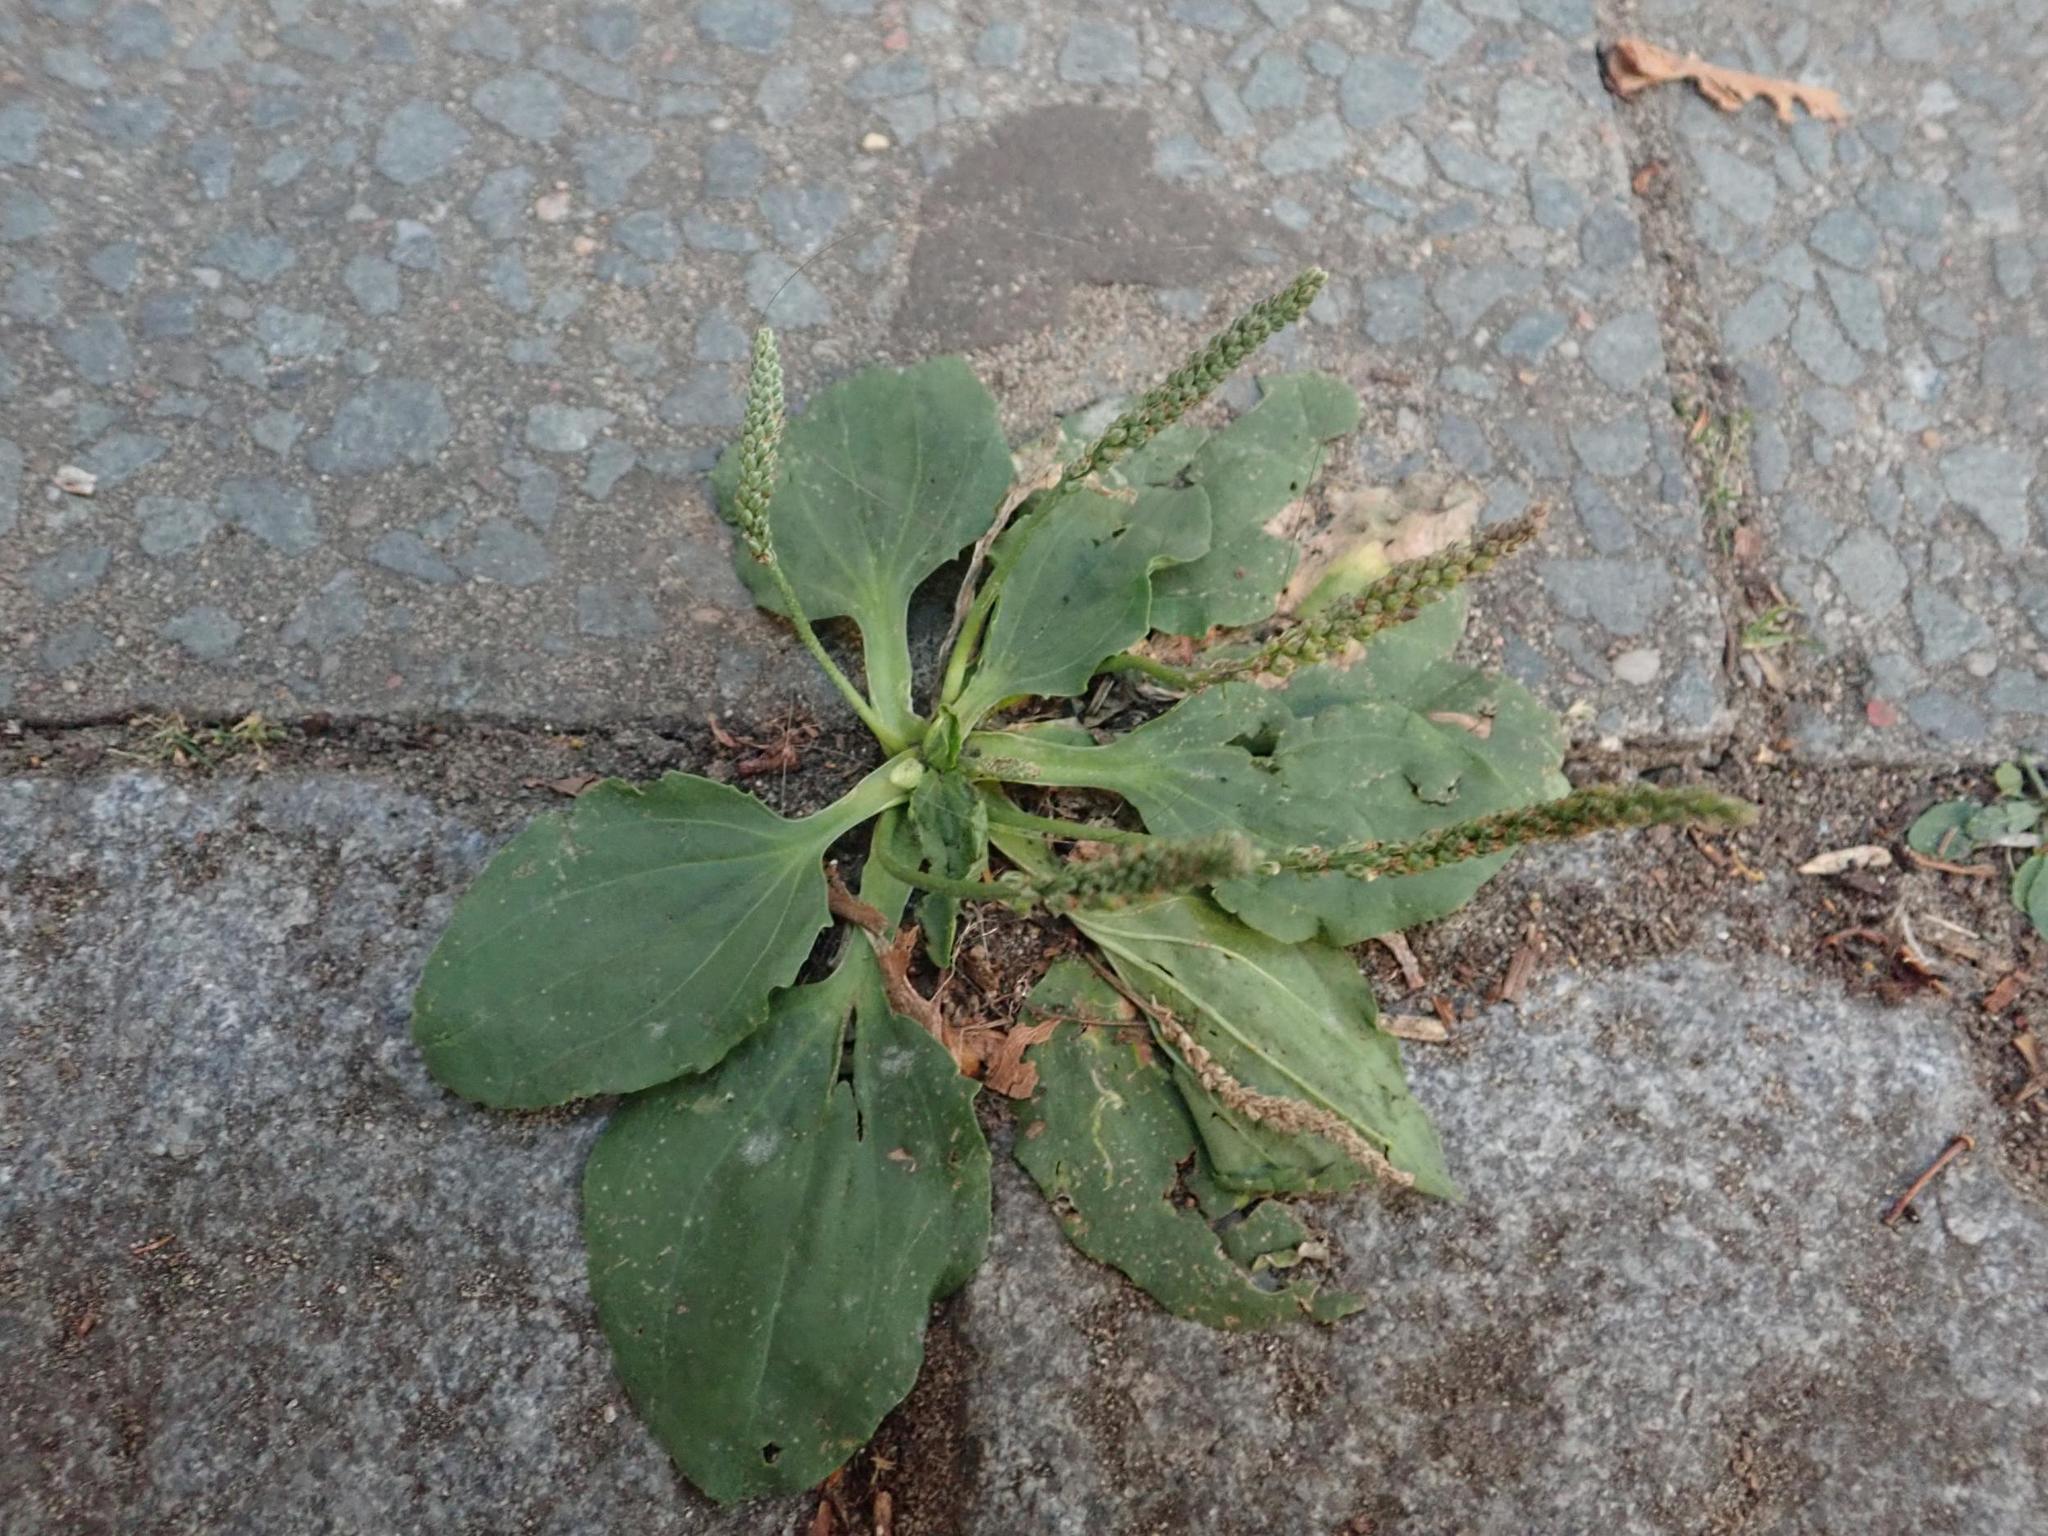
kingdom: Plantae
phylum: Tracheophyta
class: Magnoliopsida
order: Lamiales
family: Plantaginaceae
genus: Plantago
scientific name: Plantago major
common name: Common plantain
